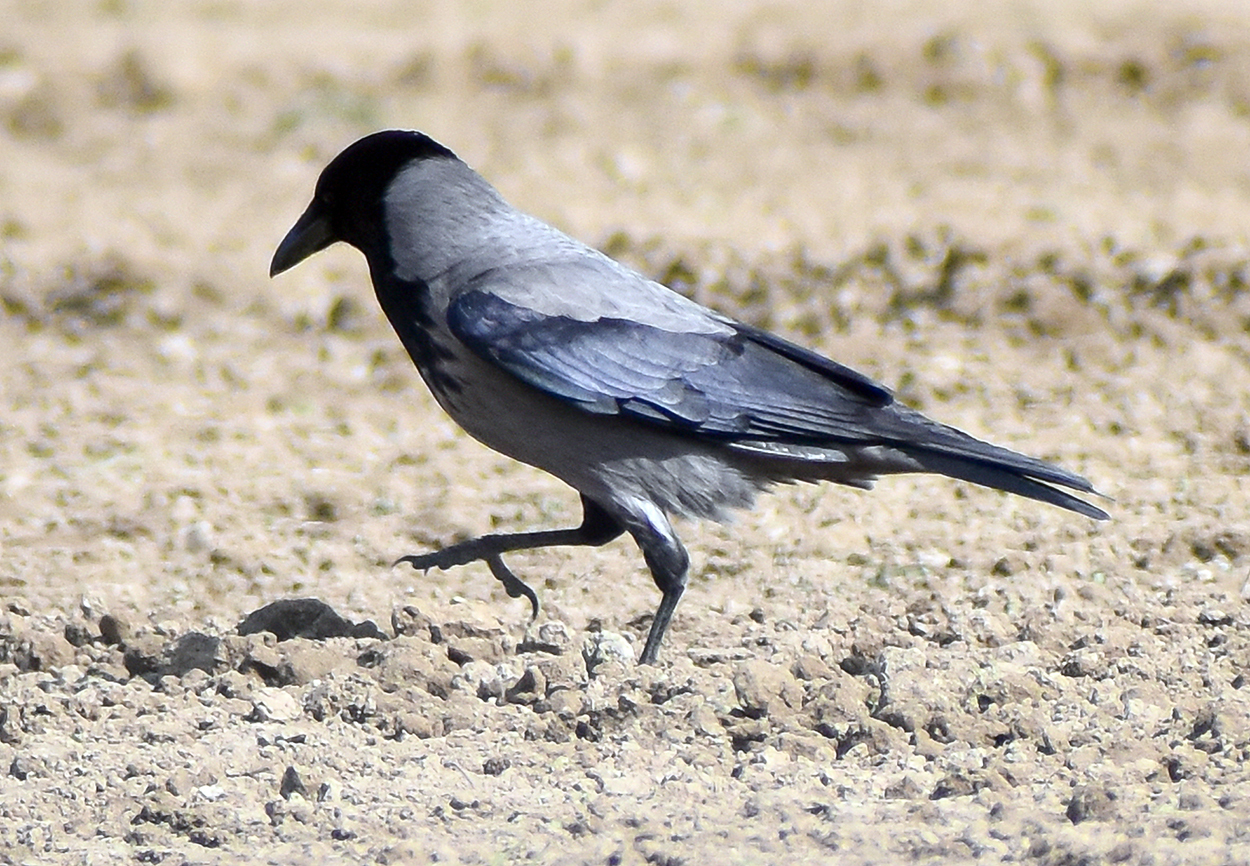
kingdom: Animalia
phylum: Chordata
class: Aves
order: Passeriformes
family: Corvidae
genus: Corvus
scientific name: Corvus cornix
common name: Hooded crow
